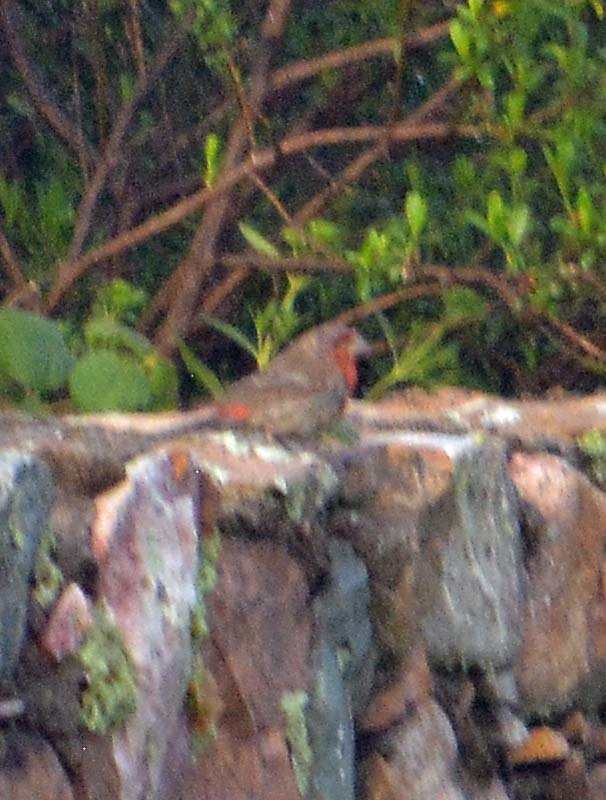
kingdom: Animalia
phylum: Chordata
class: Aves
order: Passeriformes
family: Fringillidae
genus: Haemorhous
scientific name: Haemorhous mexicanus
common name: House finch
